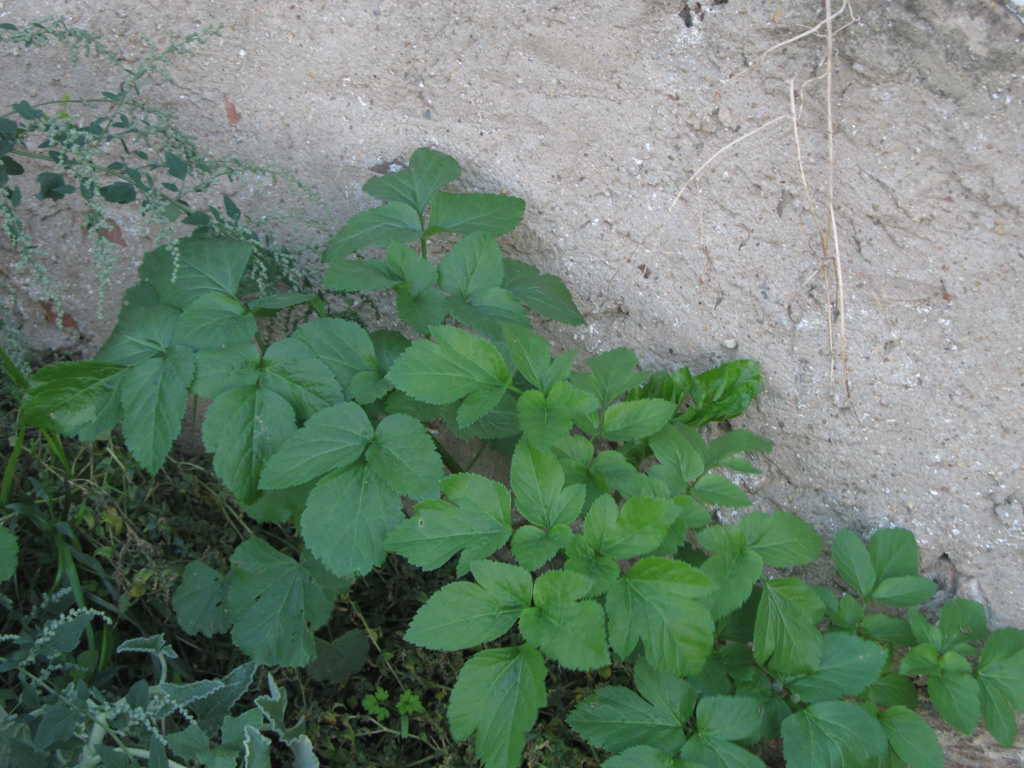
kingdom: Plantae
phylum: Tracheophyta
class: Magnoliopsida
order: Apiales
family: Apiaceae
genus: Smyrnium
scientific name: Smyrnium olusatrum
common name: Alexanders
